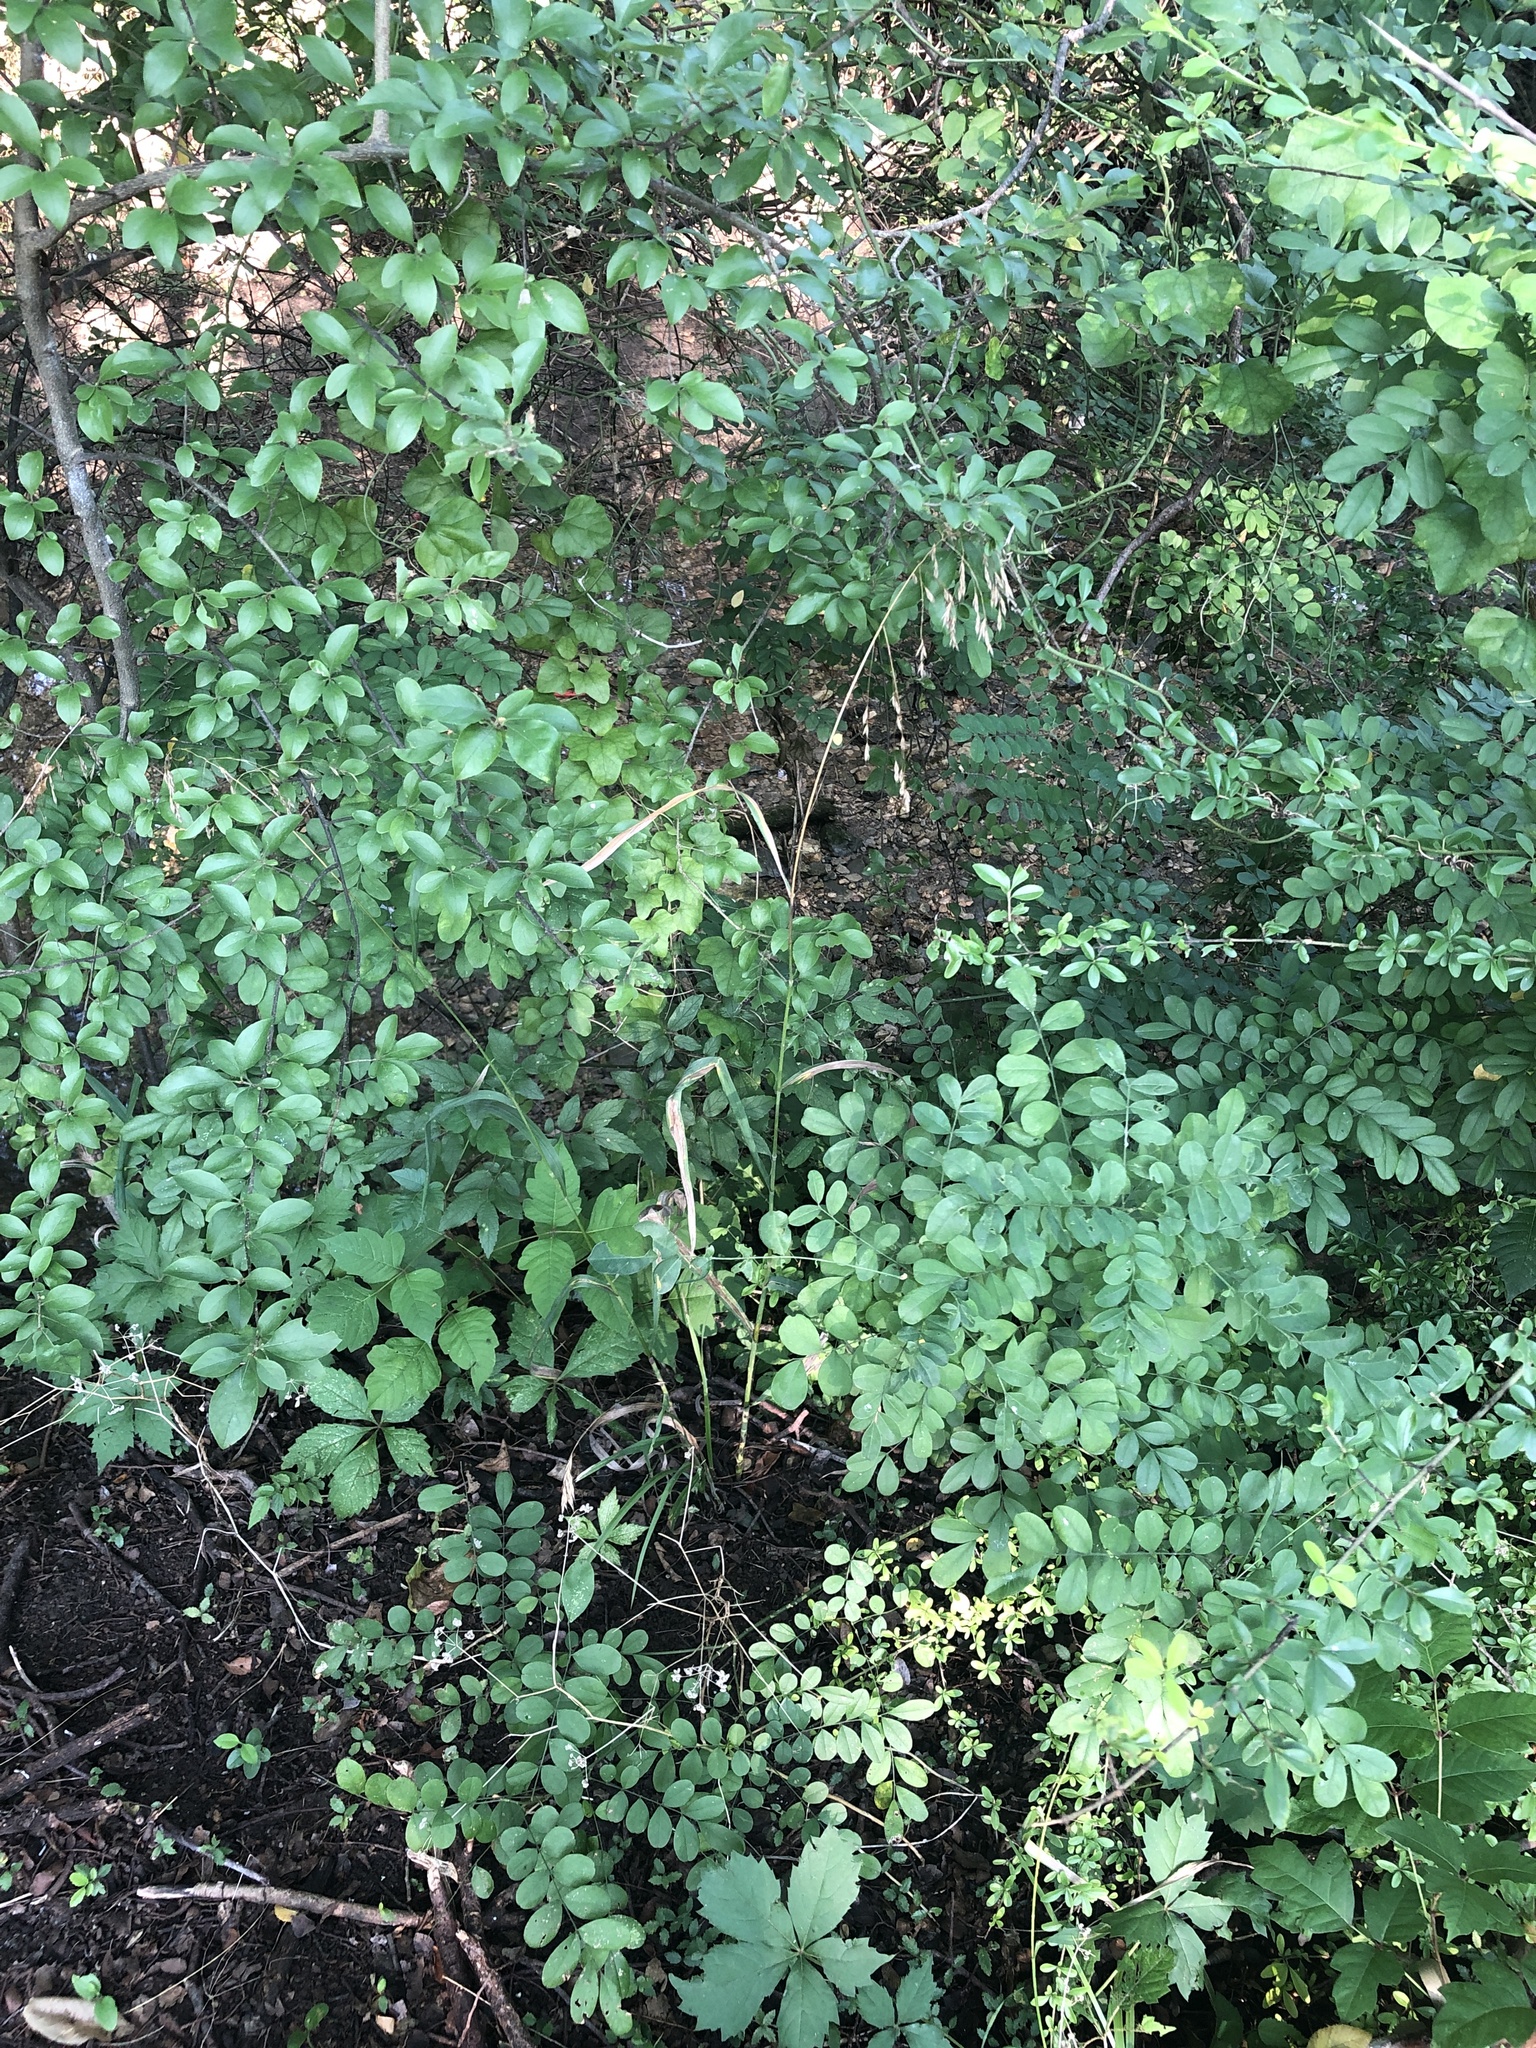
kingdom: Plantae
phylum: Tracheophyta
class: Liliopsida
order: Poales
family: Poaceae
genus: Bromus
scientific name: Bromus pubescens
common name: Hairy wood brome grass
